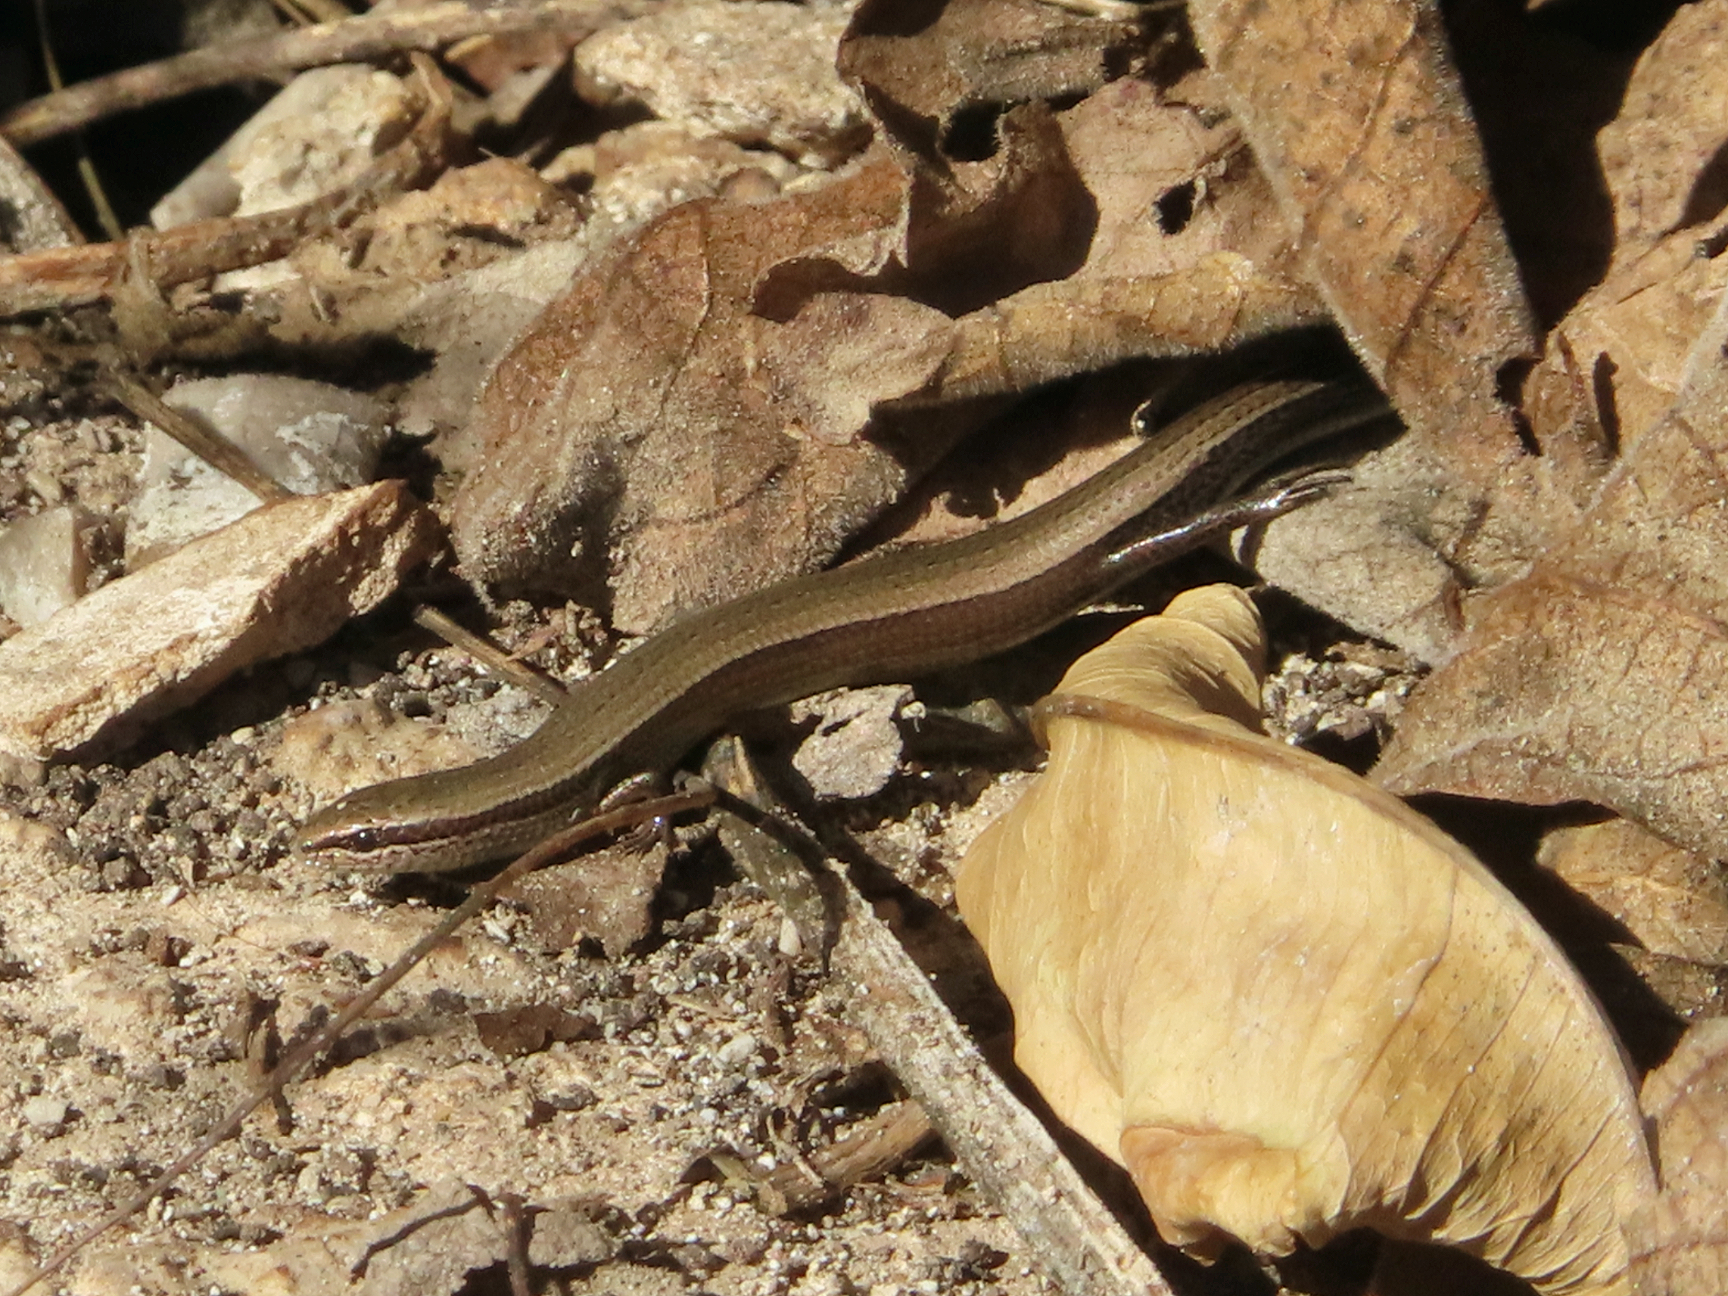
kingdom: Animalia
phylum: Chordata
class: Squamata
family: Scincidae
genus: Ablepharus
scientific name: Ablepharus kitaibelii
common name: Juniper skink
